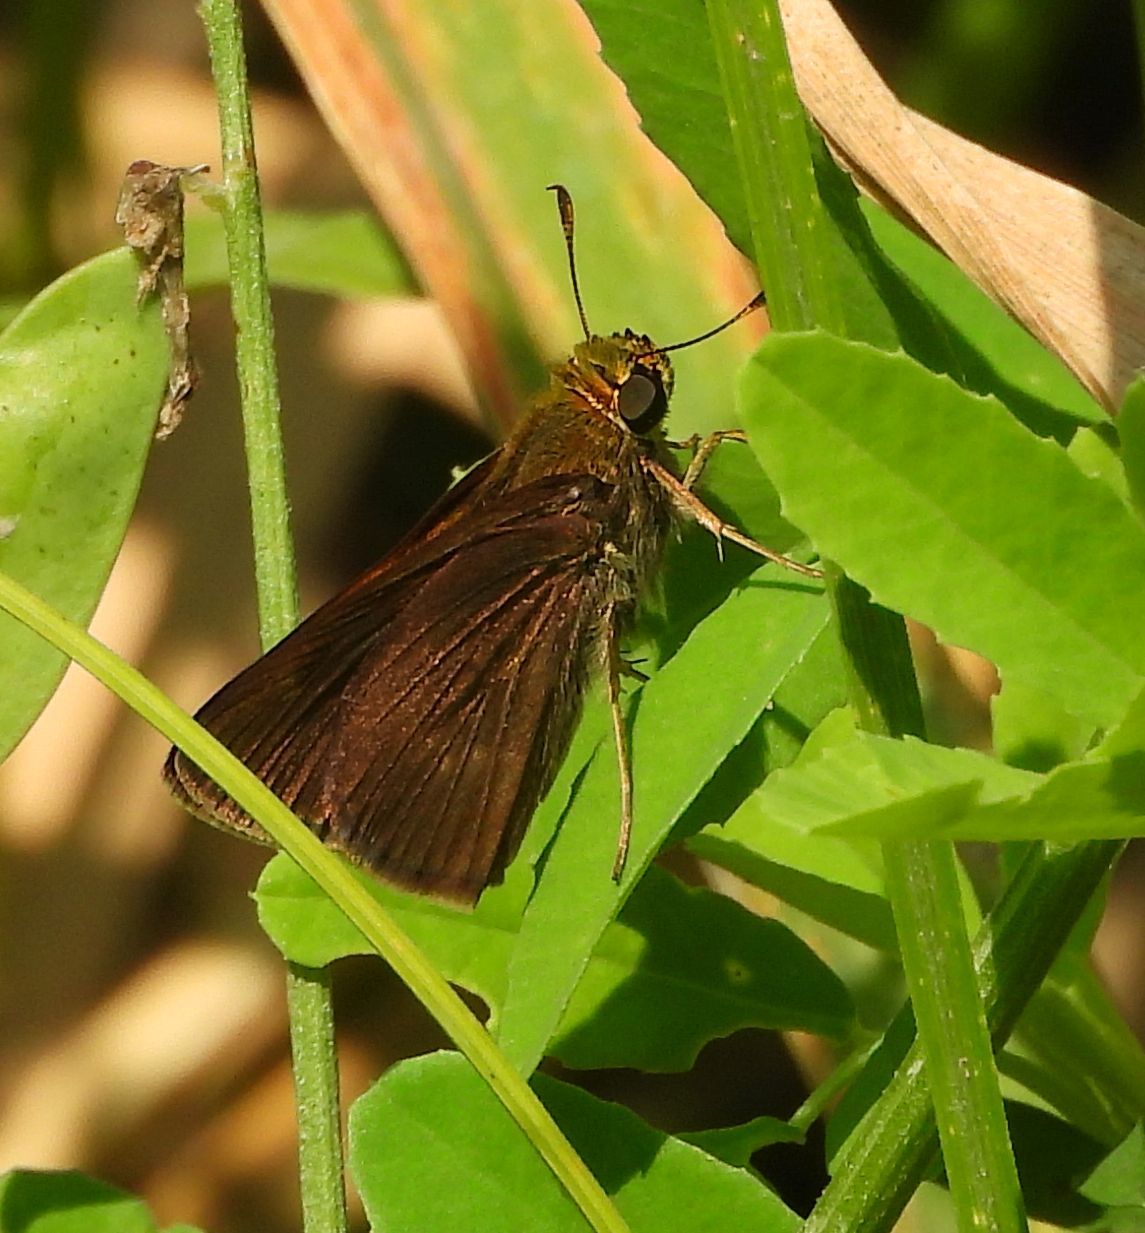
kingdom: Animalia
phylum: Arthropoda
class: Insecta
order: Lepidoptera
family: Hesperiidae
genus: Euphyes
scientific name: Euphyes vestris
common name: Dun skipper
